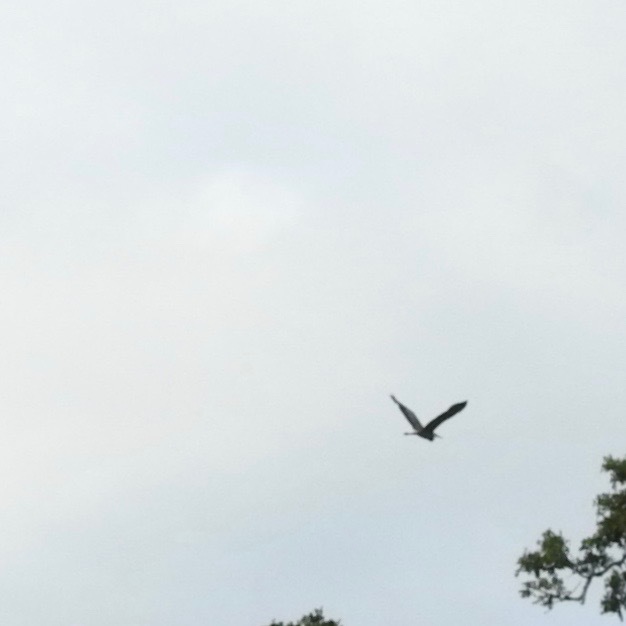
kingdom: Animalia
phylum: Chordata
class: Aves
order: Pelecaniformes
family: Ardeidae
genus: Ardea
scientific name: Ardea herodias
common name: Great blue heron
